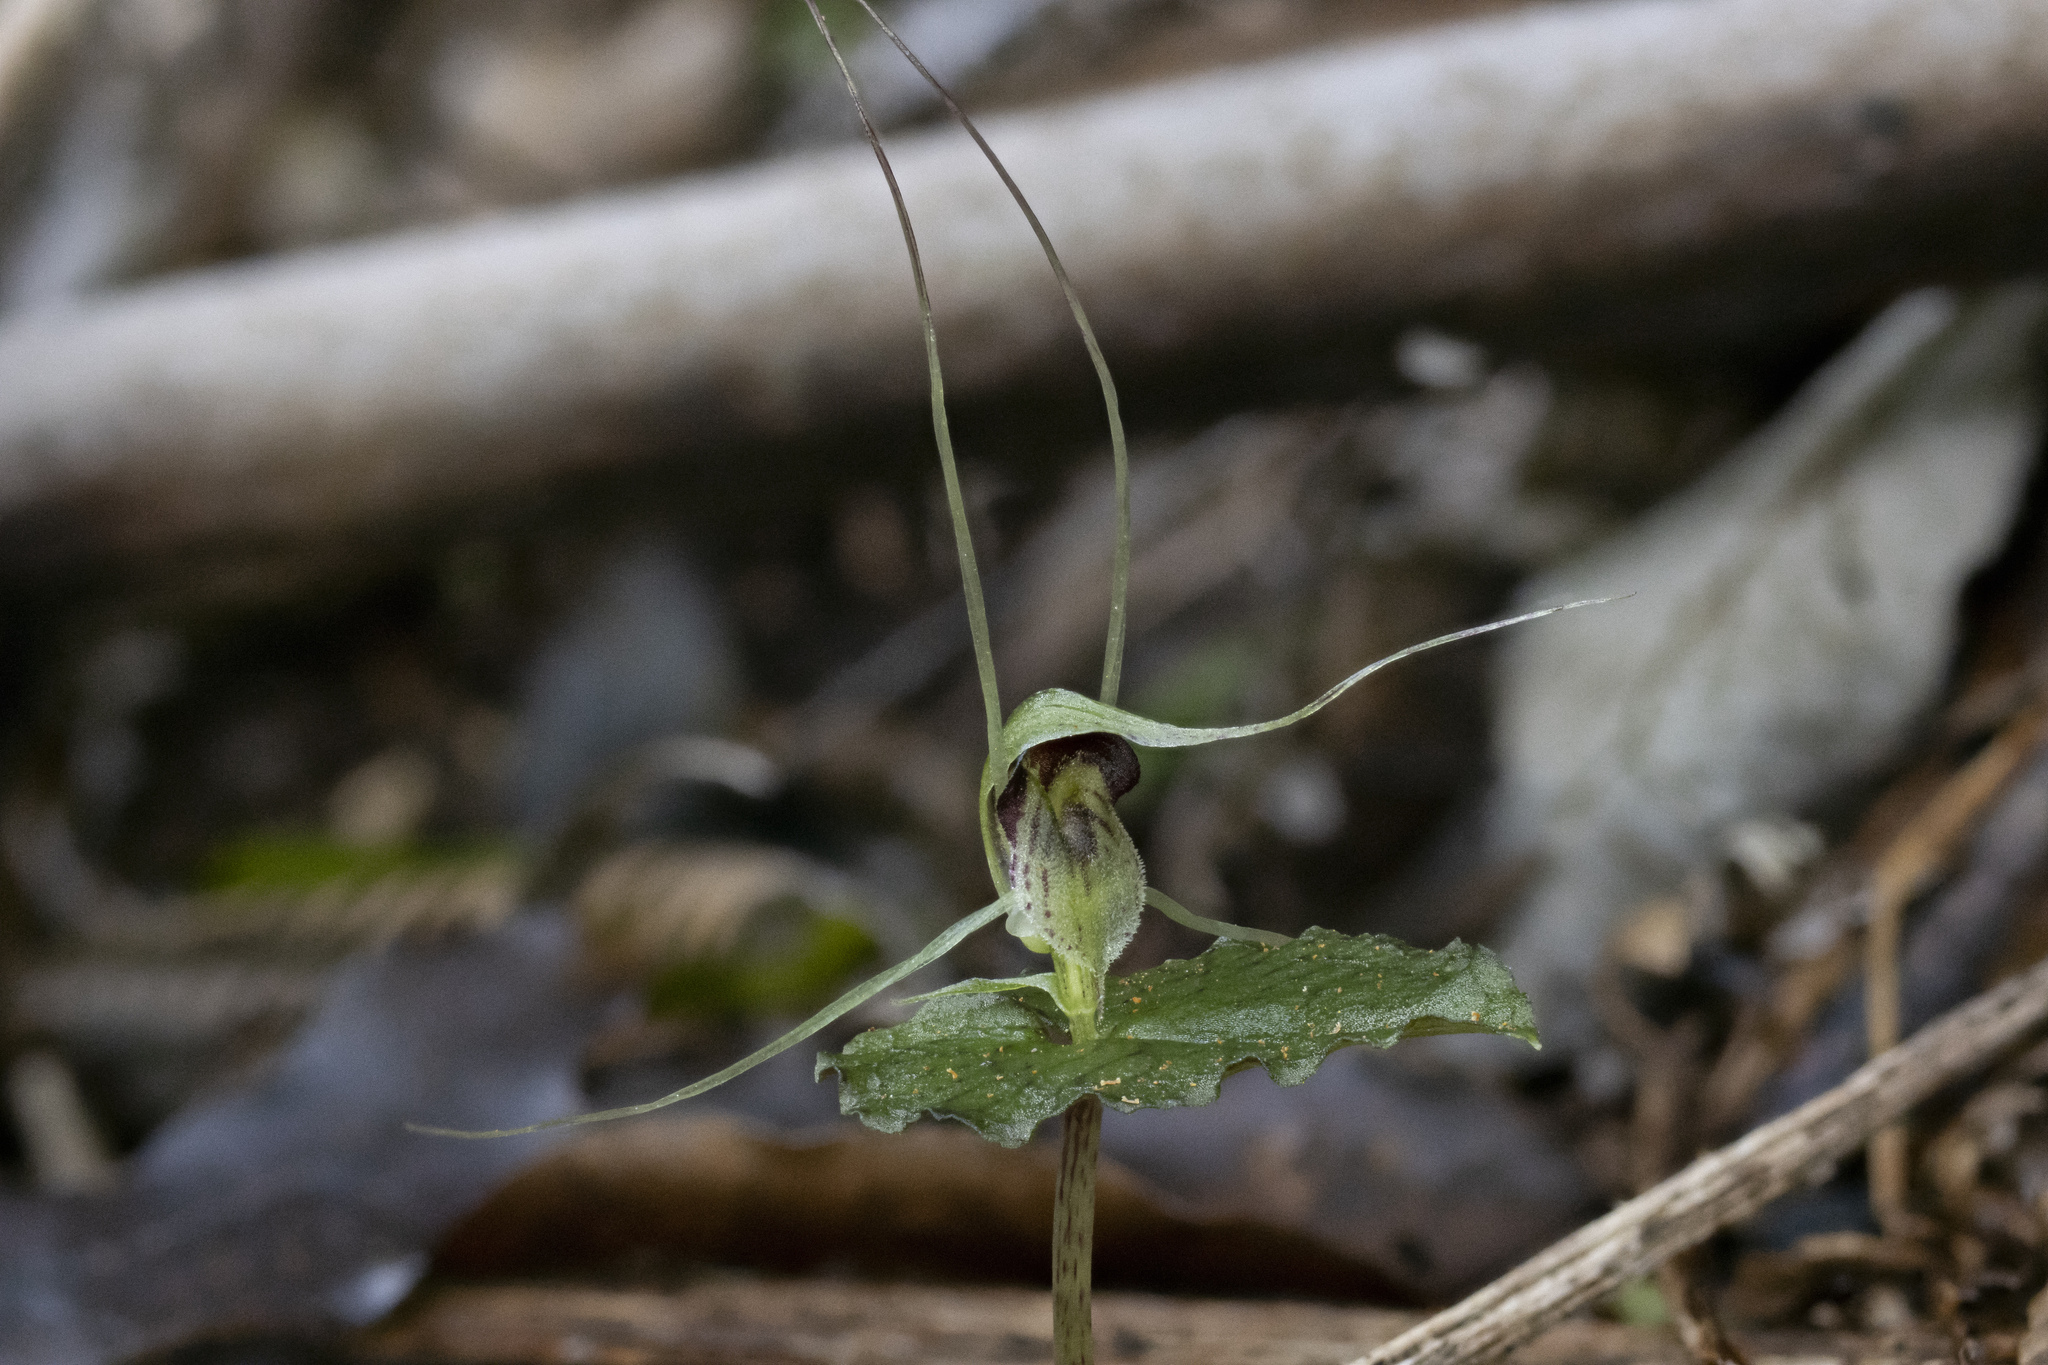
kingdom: Plantae
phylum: Tracheophyta
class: Liliopsida
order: Asparagales
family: Orchidaceae
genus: Corybas
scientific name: Corybas acuminatus
